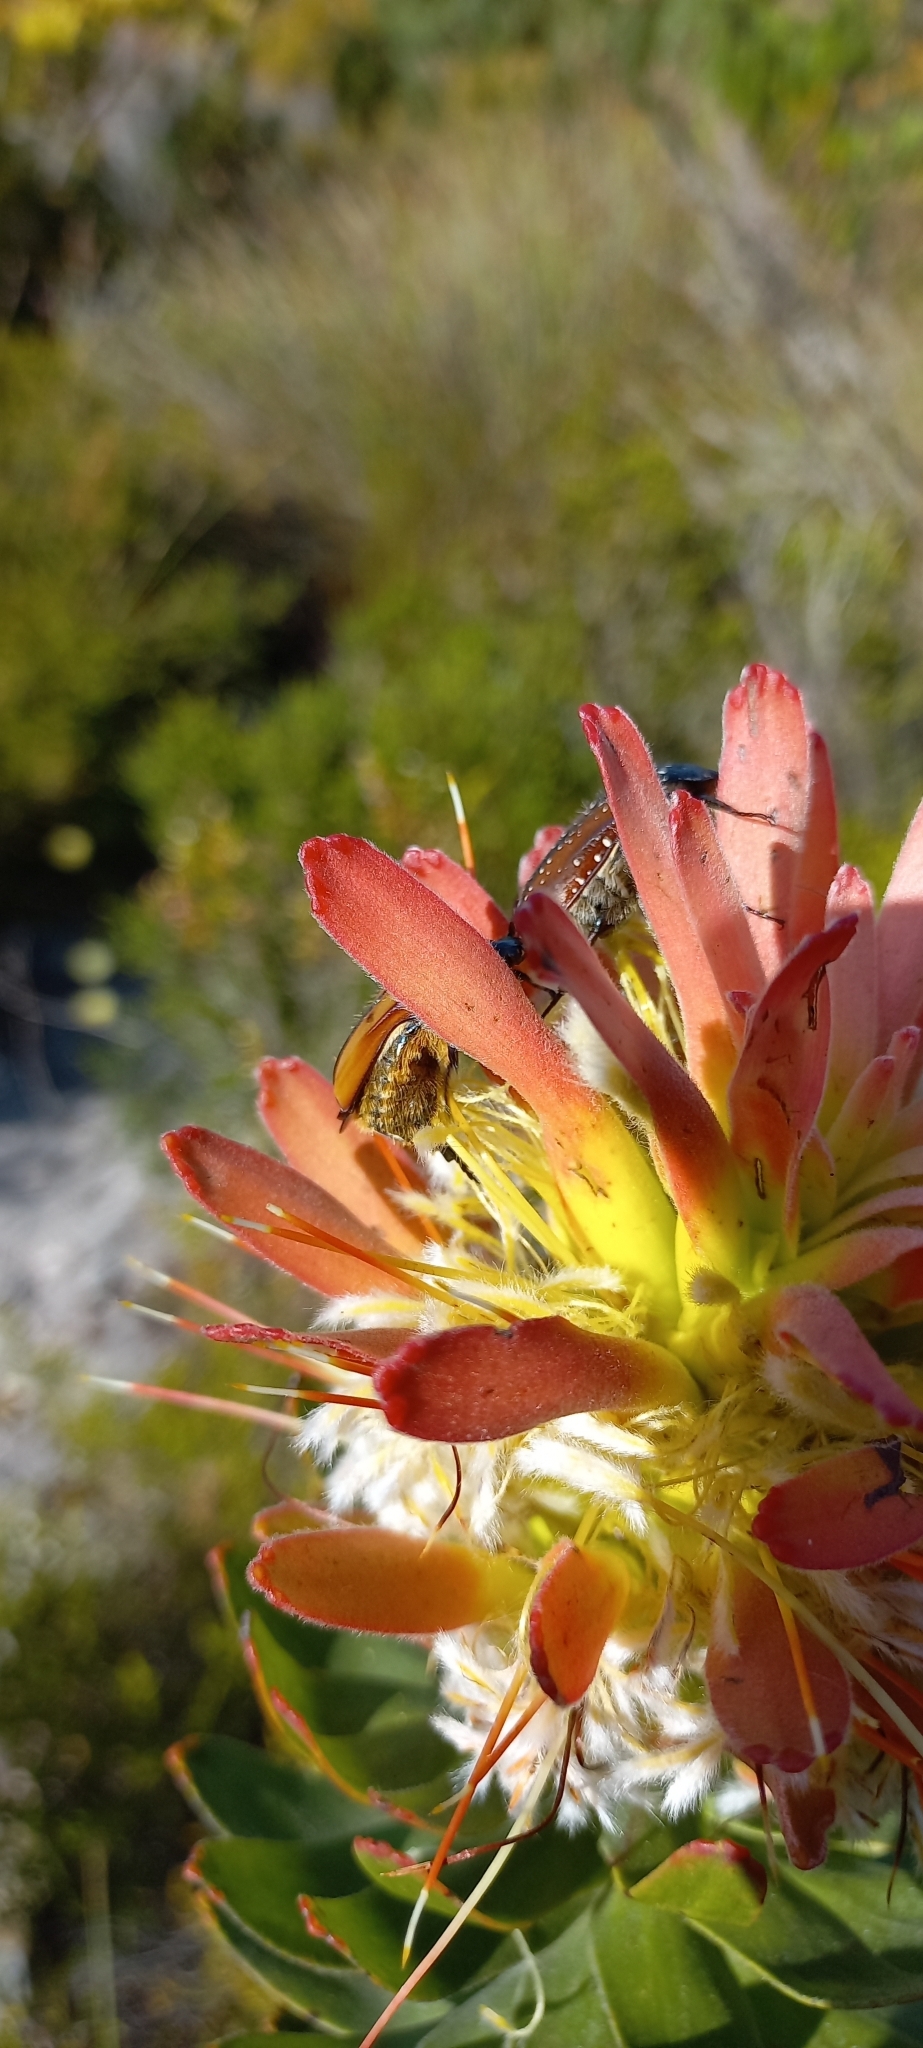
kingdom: Plantae
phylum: Tracheophyta
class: Magnoliopsida
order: Proteales
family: Proteaceae
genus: Mimetes
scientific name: Mimetes cucullatus
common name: Common pagoda
